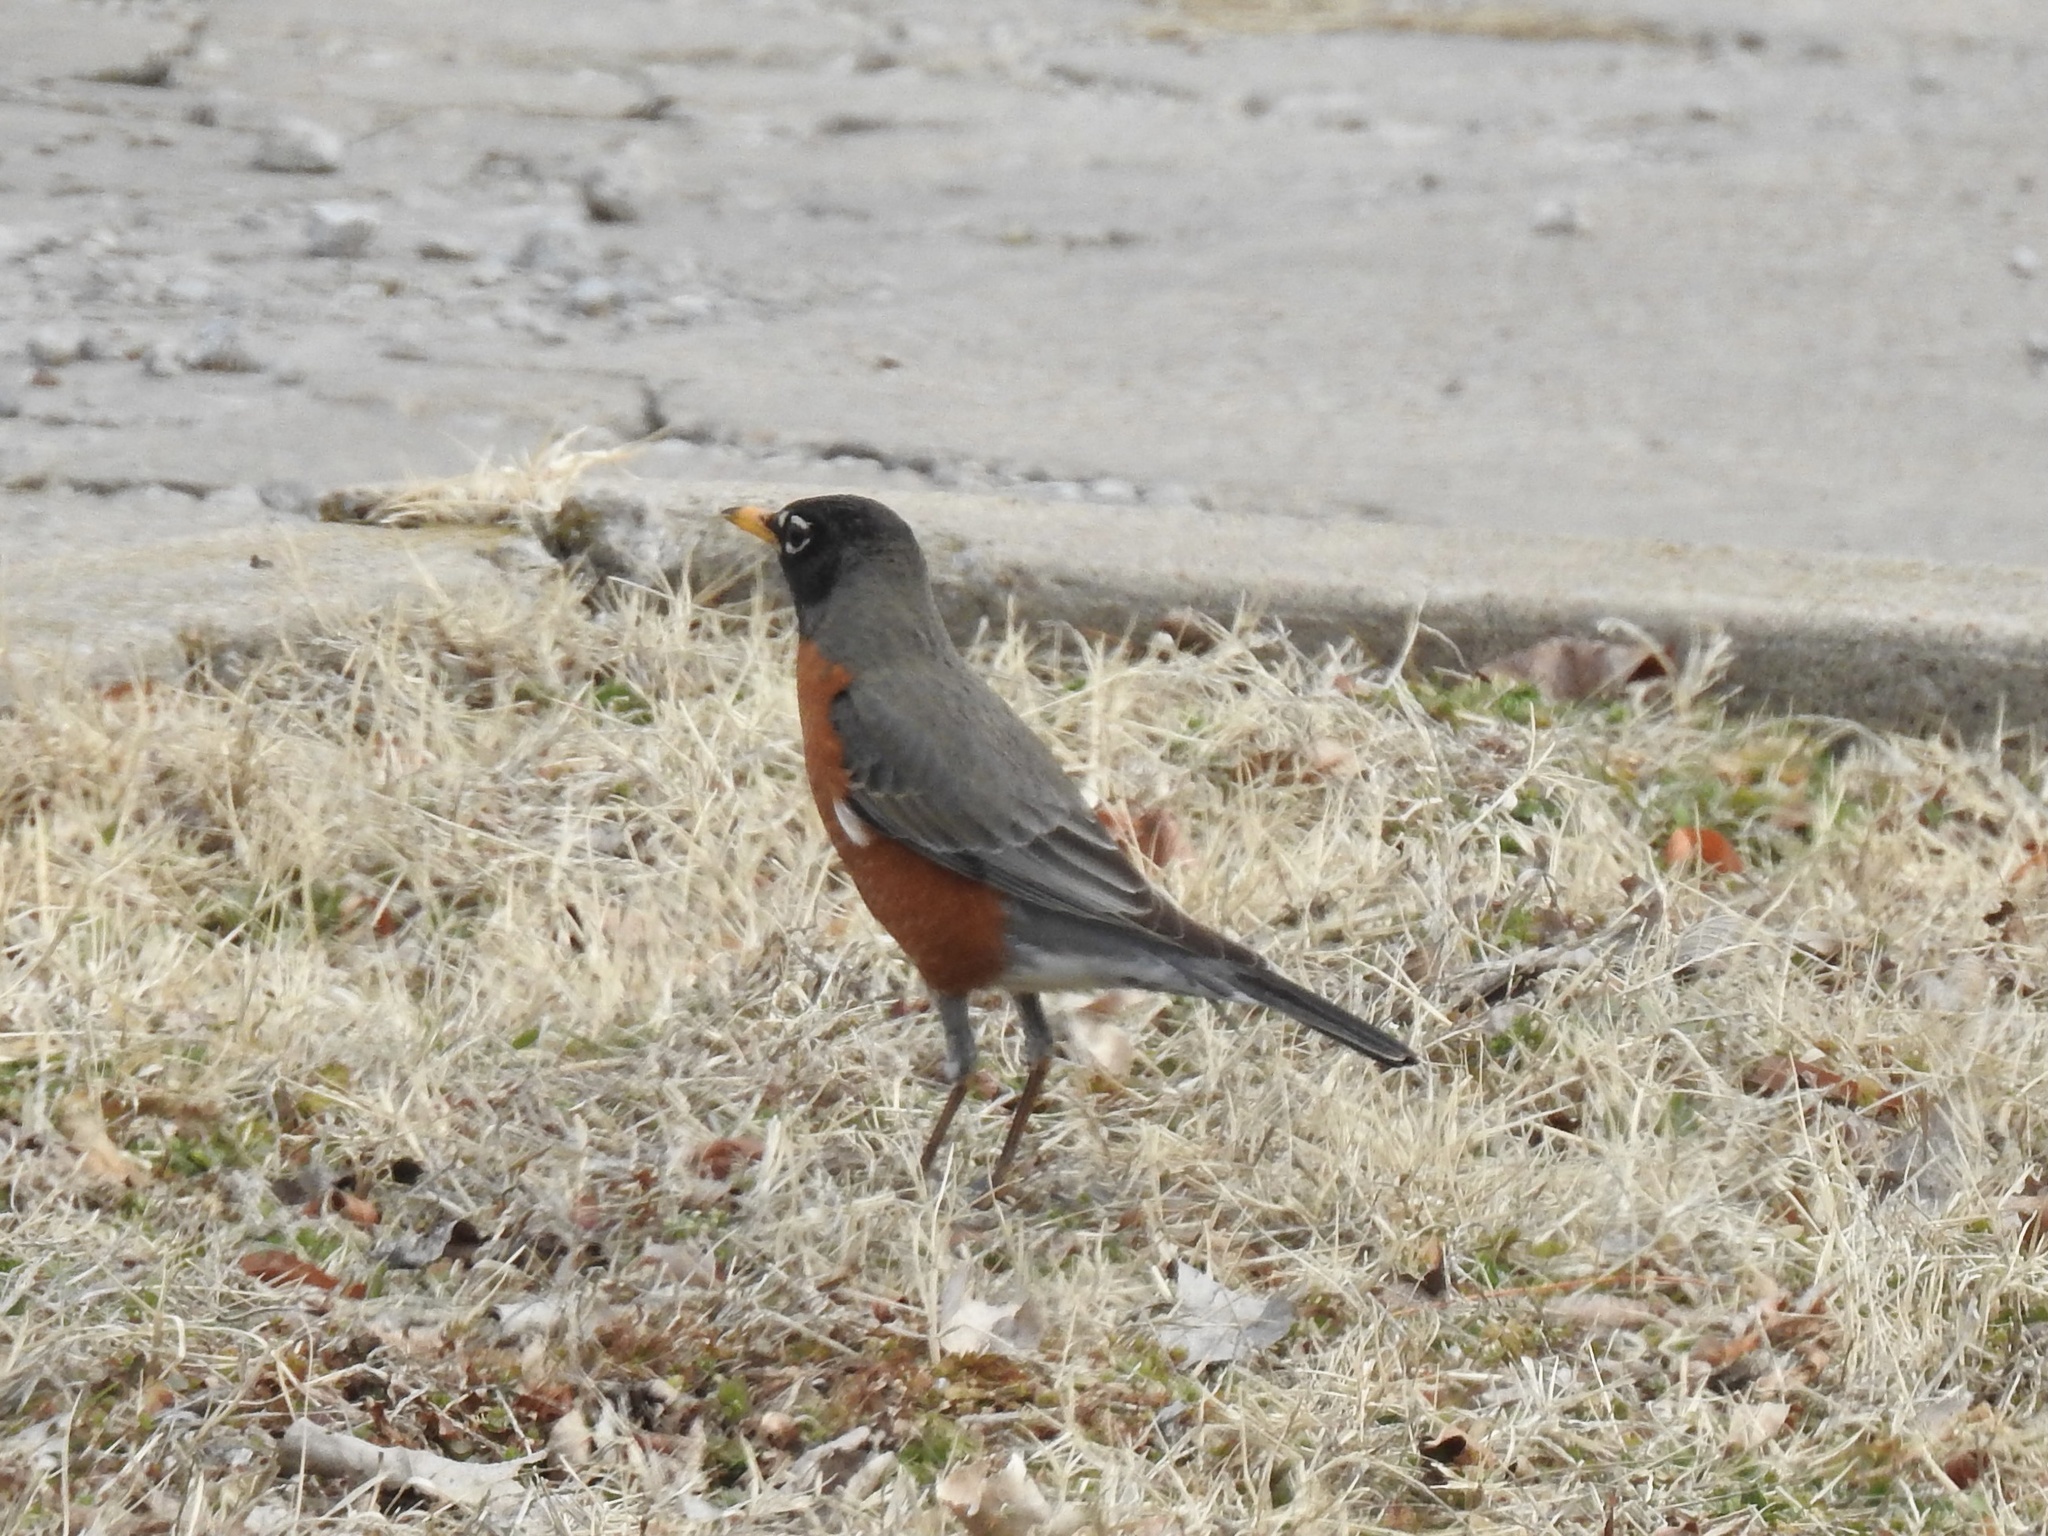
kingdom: Animalia
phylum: Chordata
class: Aves
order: Passeriformes
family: Turdidae
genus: Turdus
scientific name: Turdus migratorius
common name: American robin
